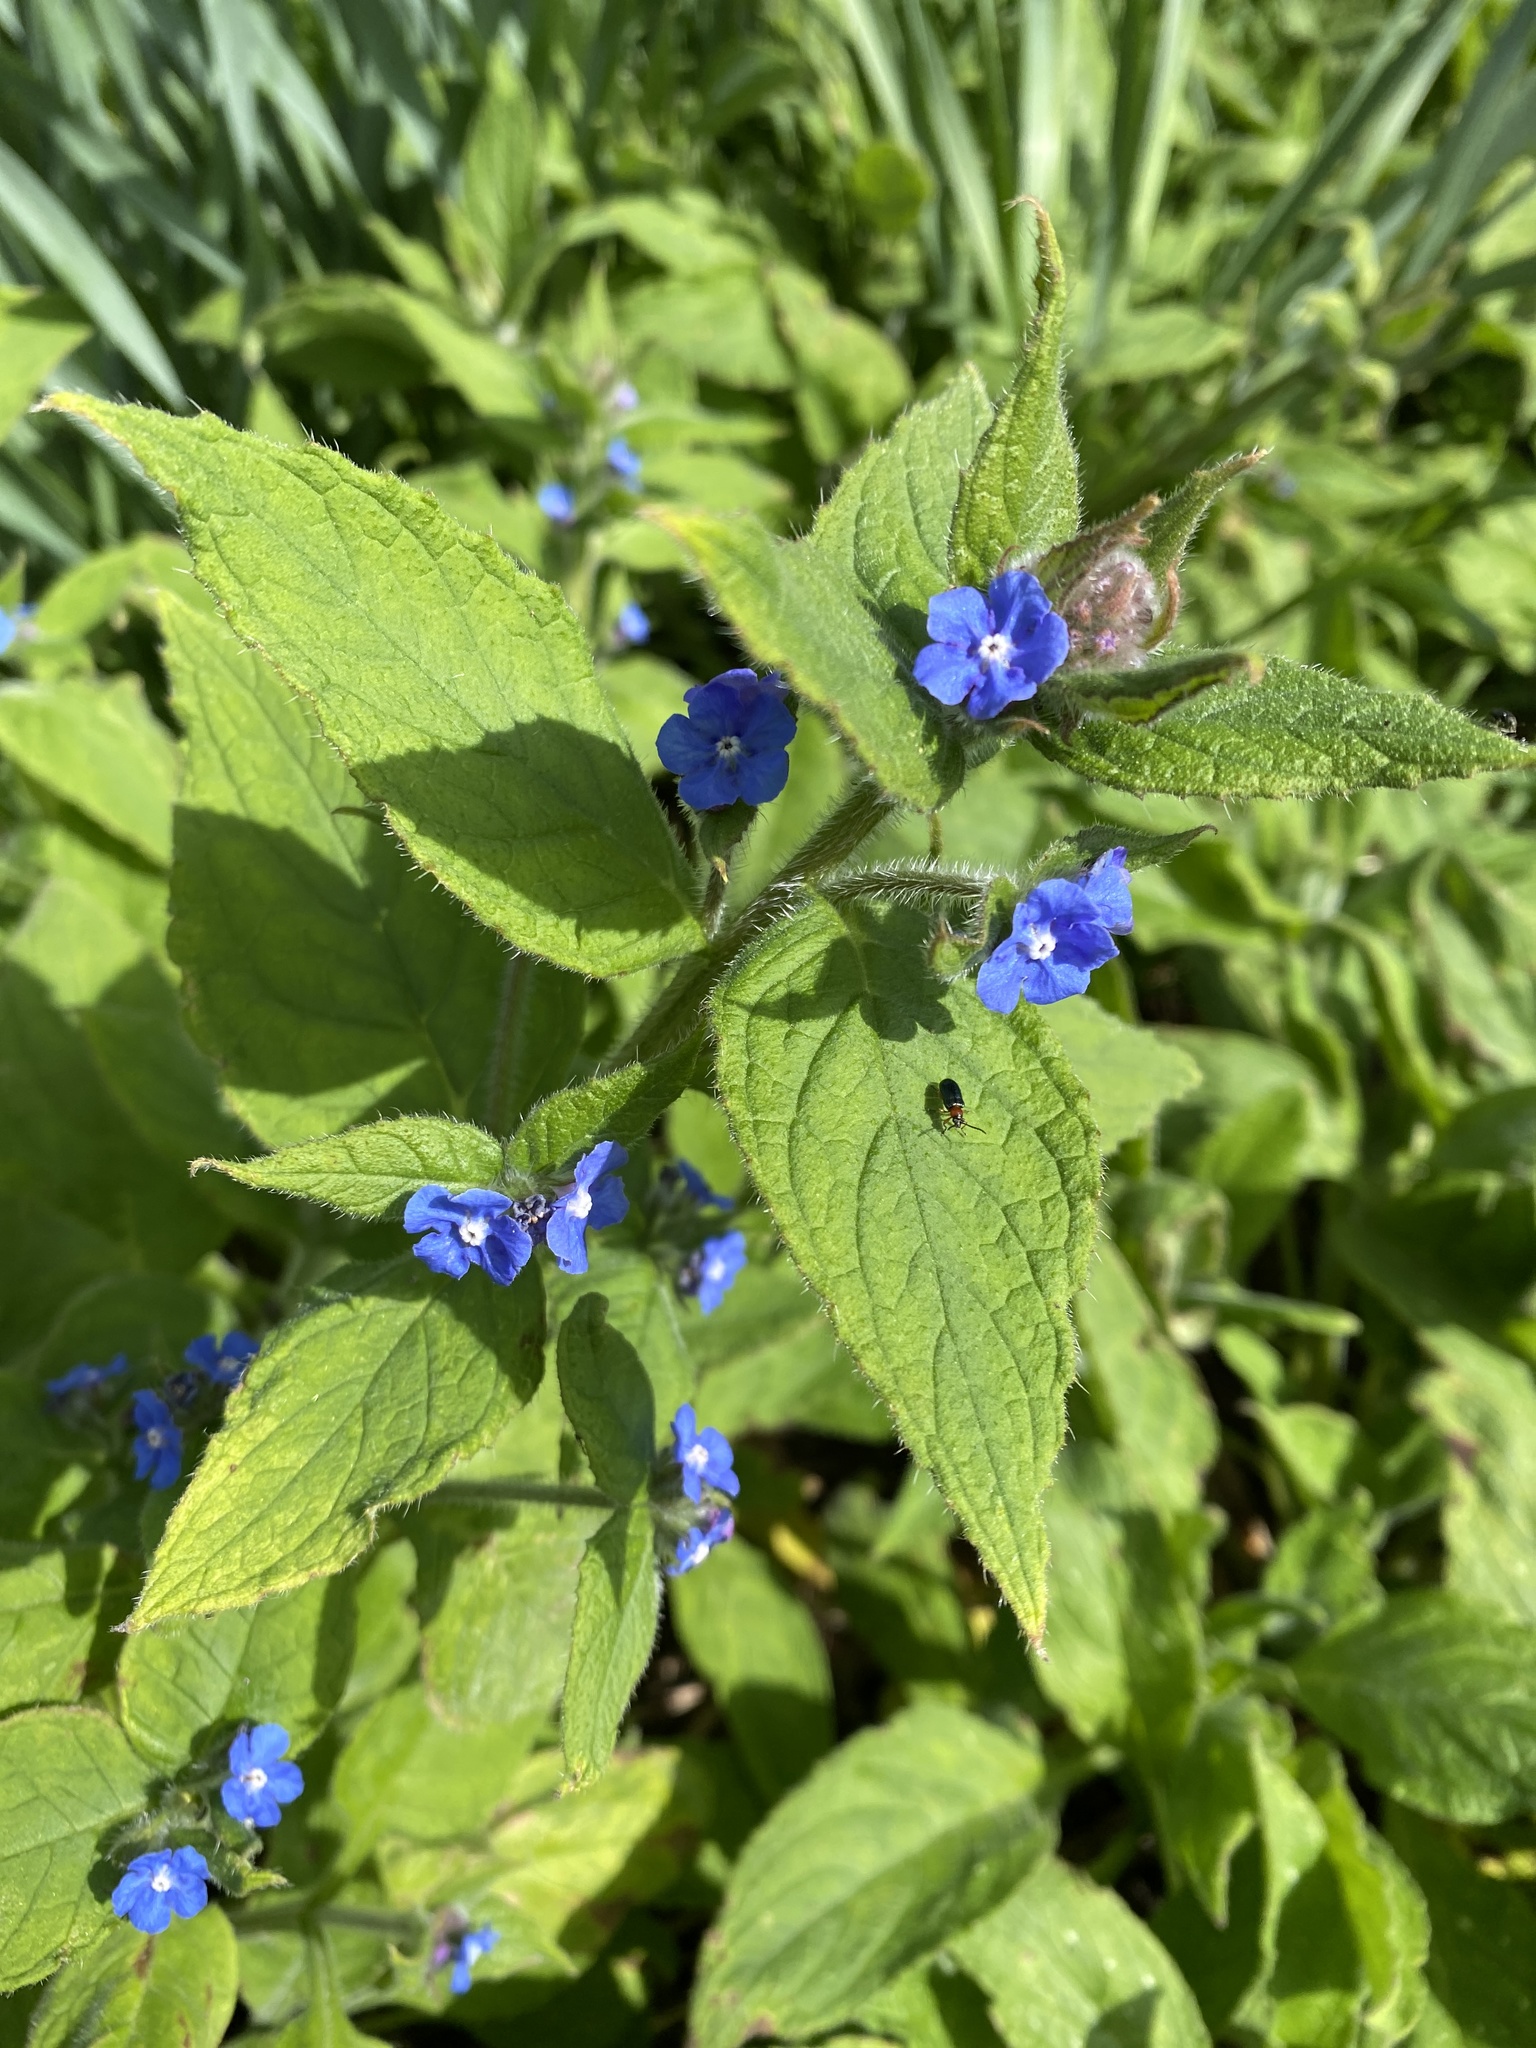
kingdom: Plantae
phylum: Tracheophyta
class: Magnoliopsida
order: Boraginales
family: Boraginaceae
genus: Pentaglottis
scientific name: Pentaglottis sempervirens
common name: Green alkanet
